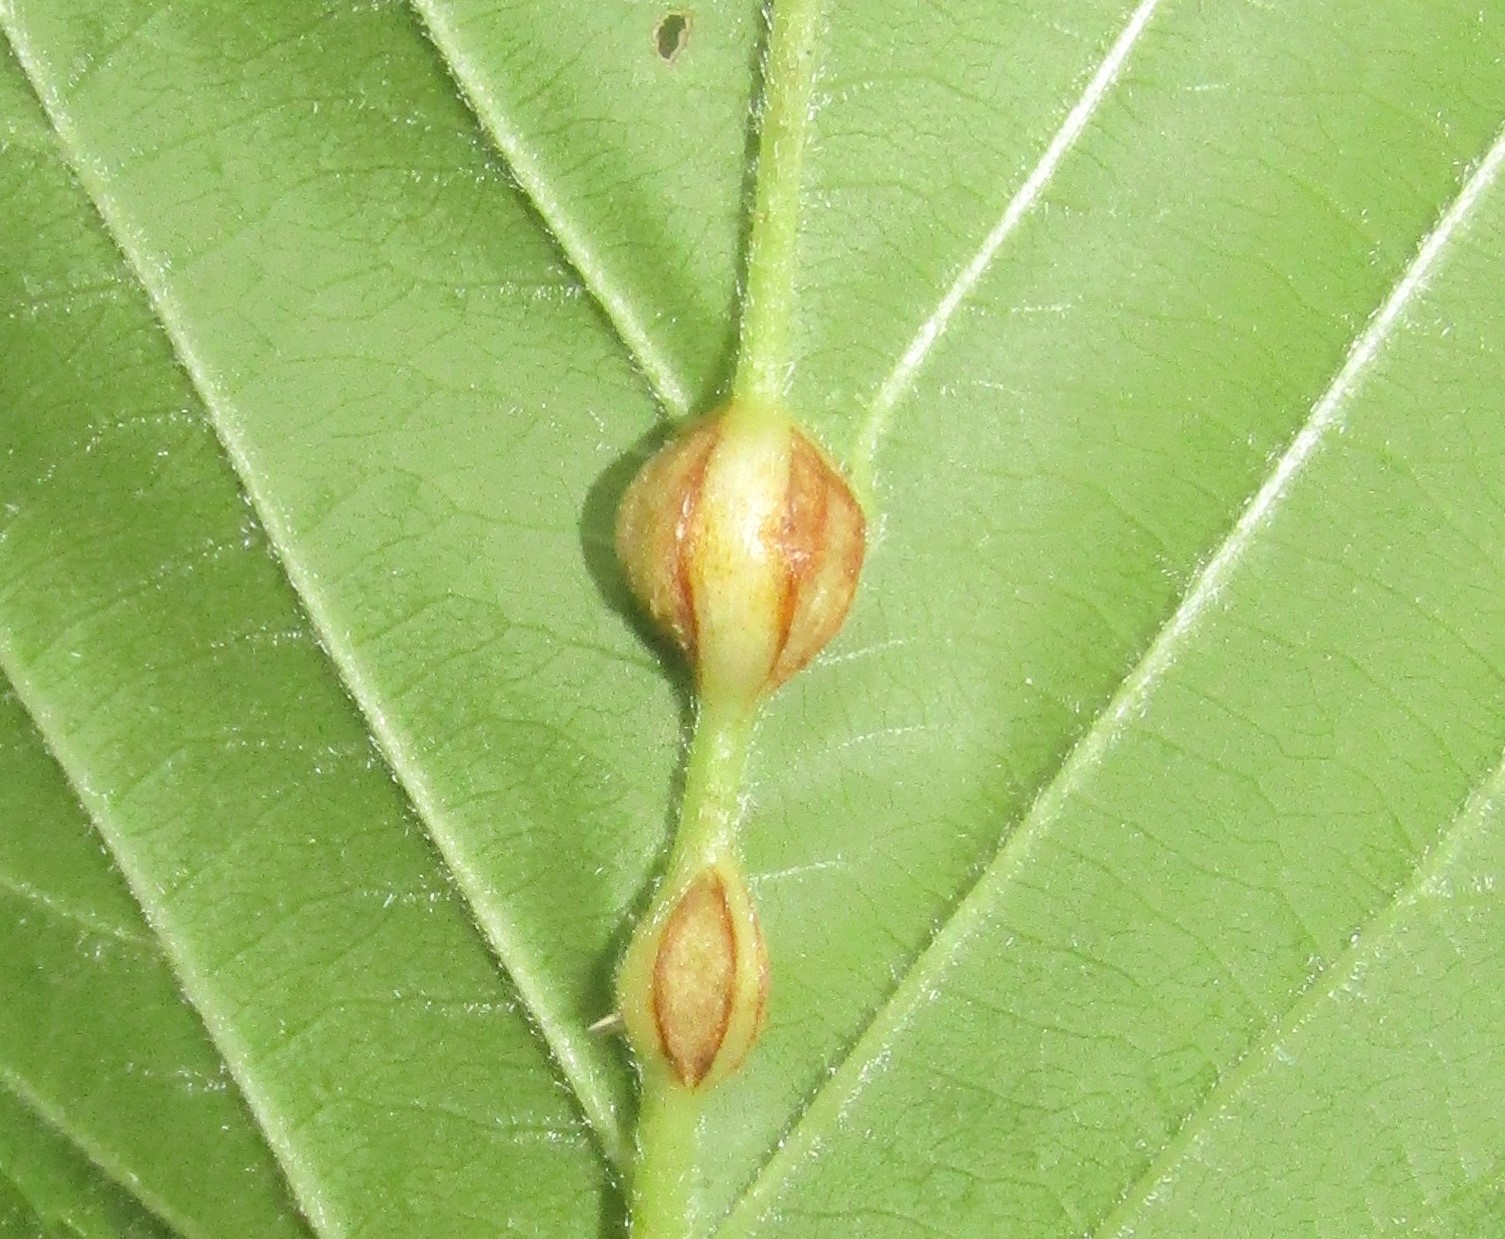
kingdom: Animalia
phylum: Arthropoda
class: Insecta
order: Diptera
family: Cecidomyiidae
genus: Neolasioptera
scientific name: Neolasioptera farinosa
